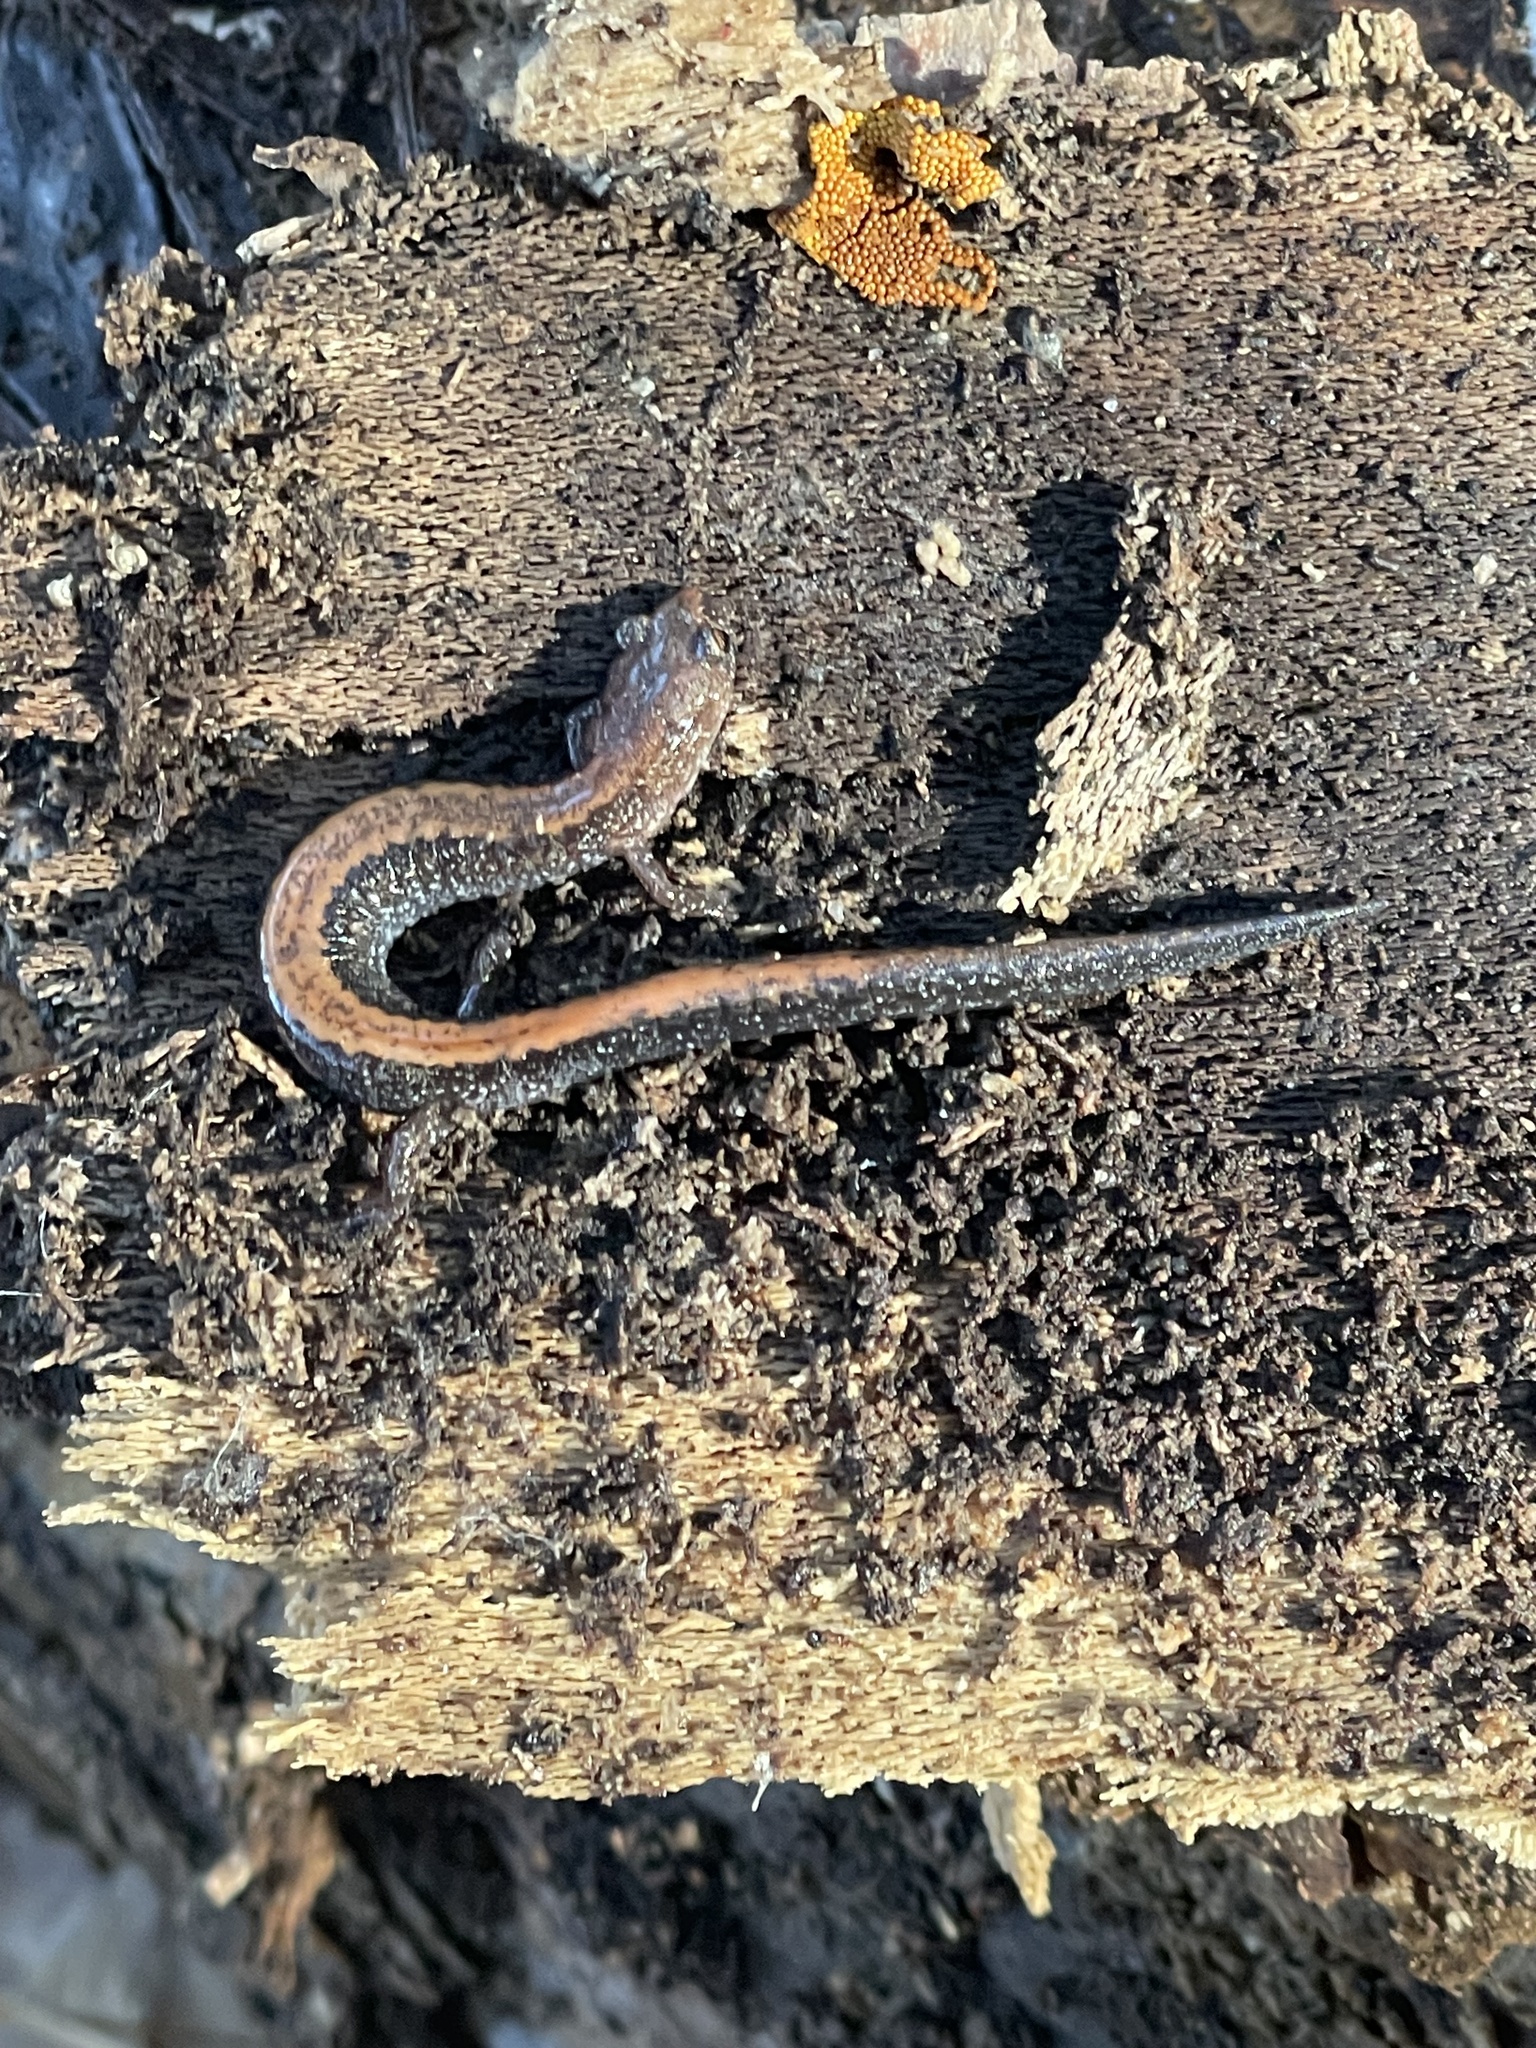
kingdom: Animalia
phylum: Chordata
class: Amphibia
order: Caudata
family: Plethodontidae
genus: Plethodon
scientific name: Plethodon cinereus
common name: Redback salamander
